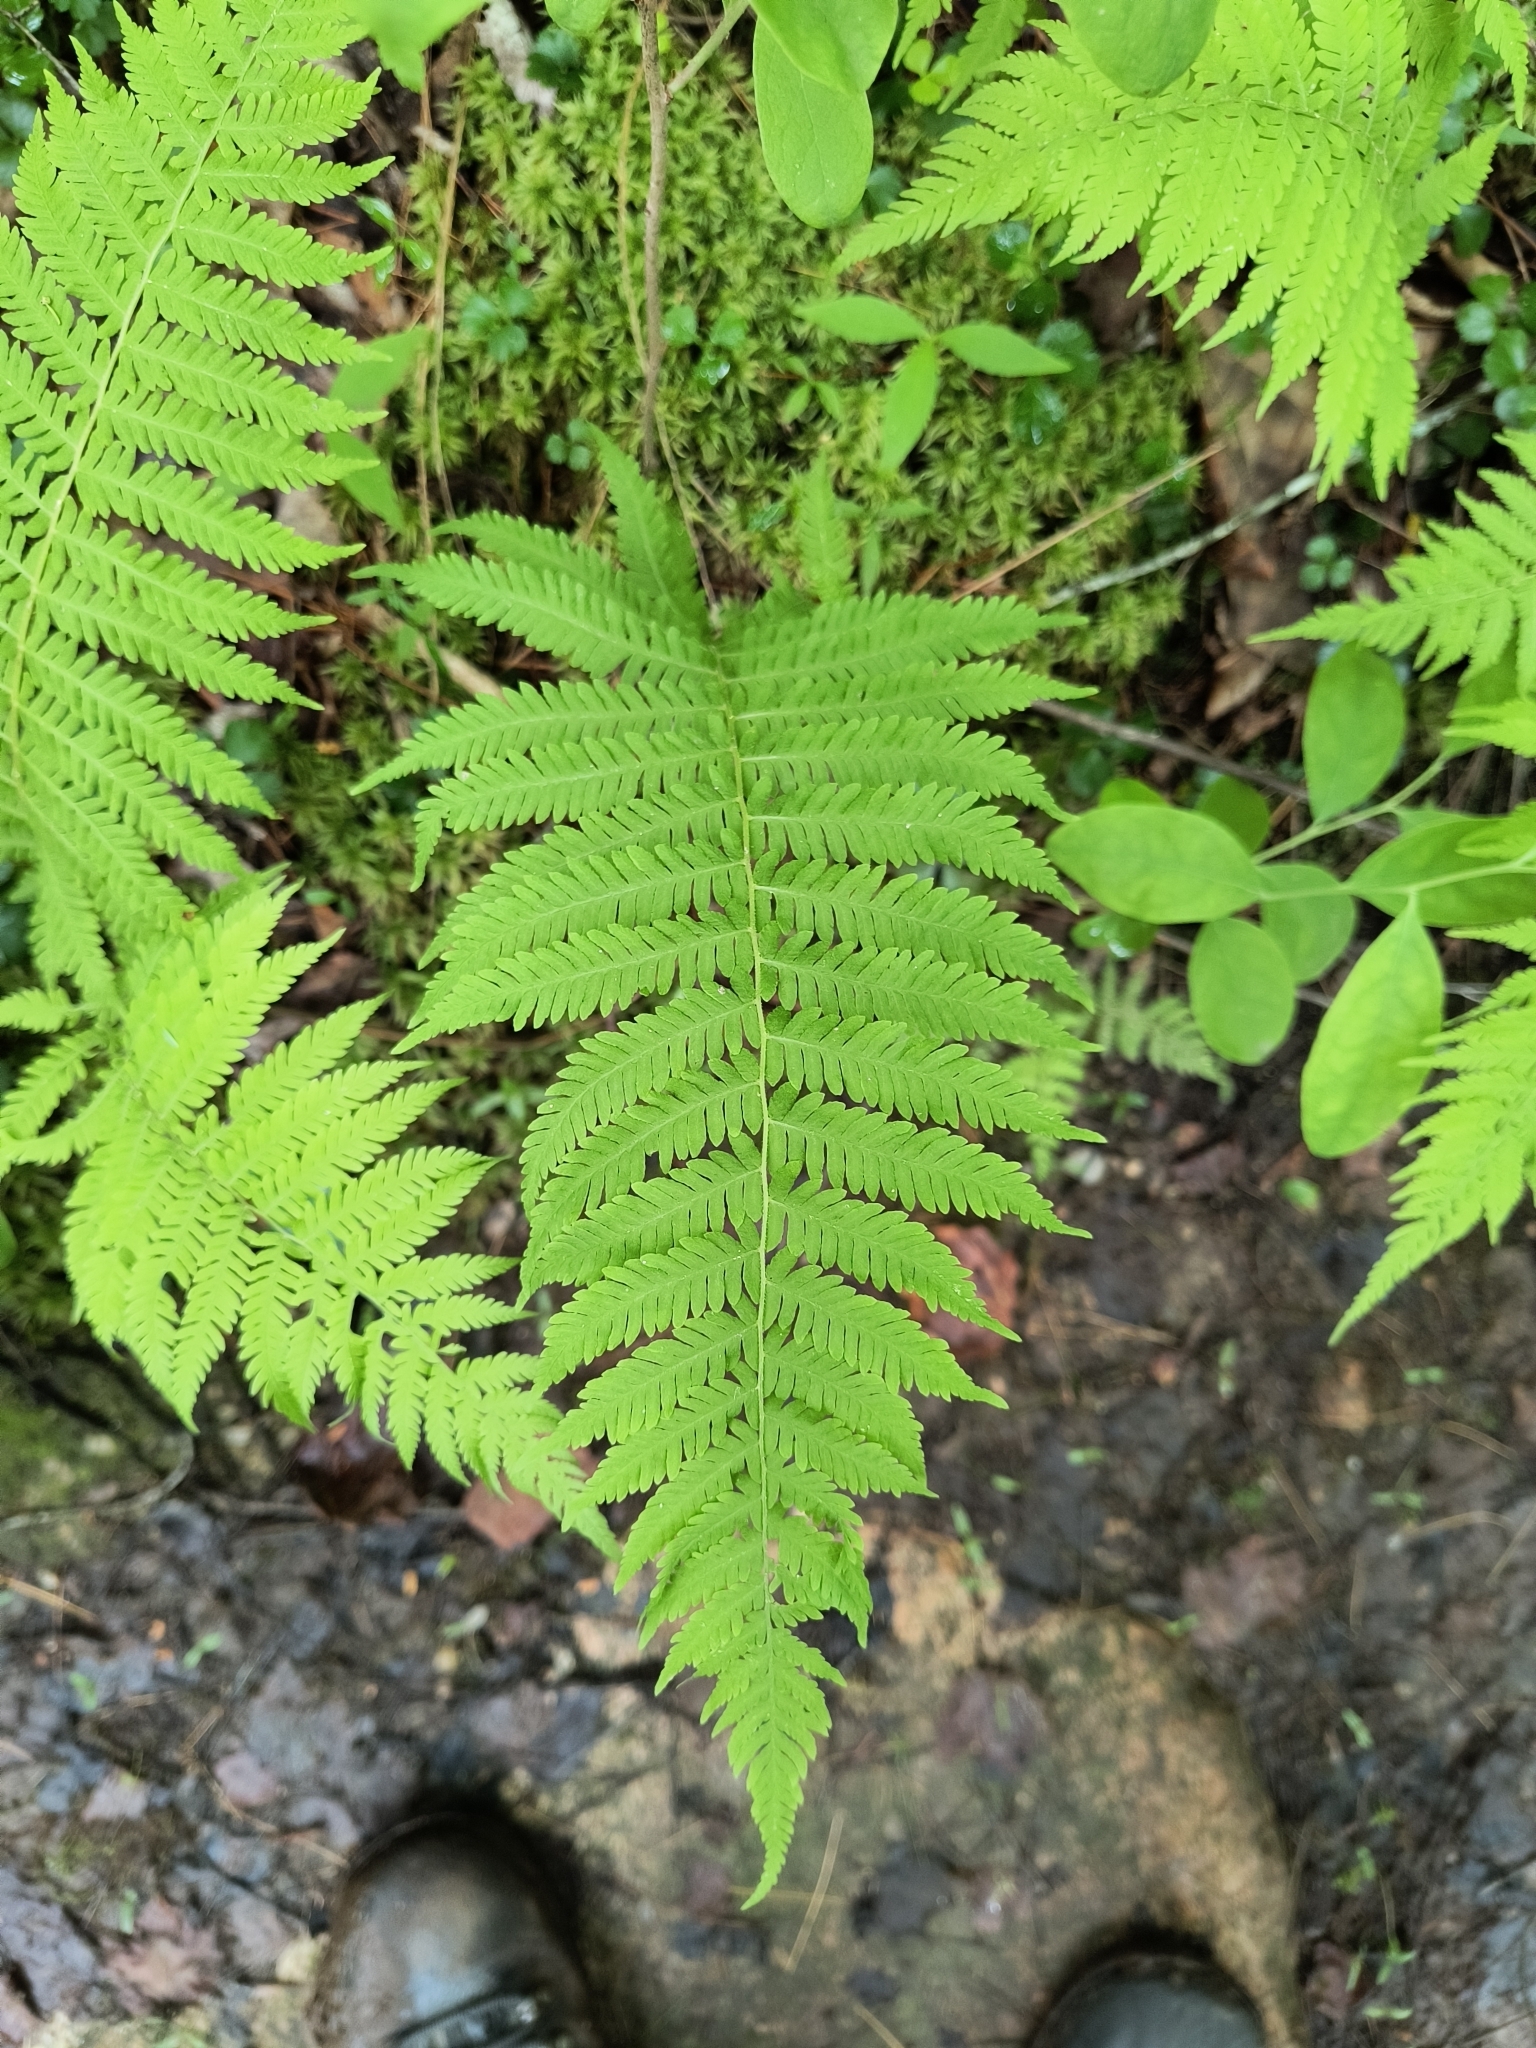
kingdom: Plantae
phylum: Tracheophyta
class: Polypodiopsida
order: Polypodiales
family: Thelypteridaceae
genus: Amauropelta
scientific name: Amauropelta noveboracensis
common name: New york fern
